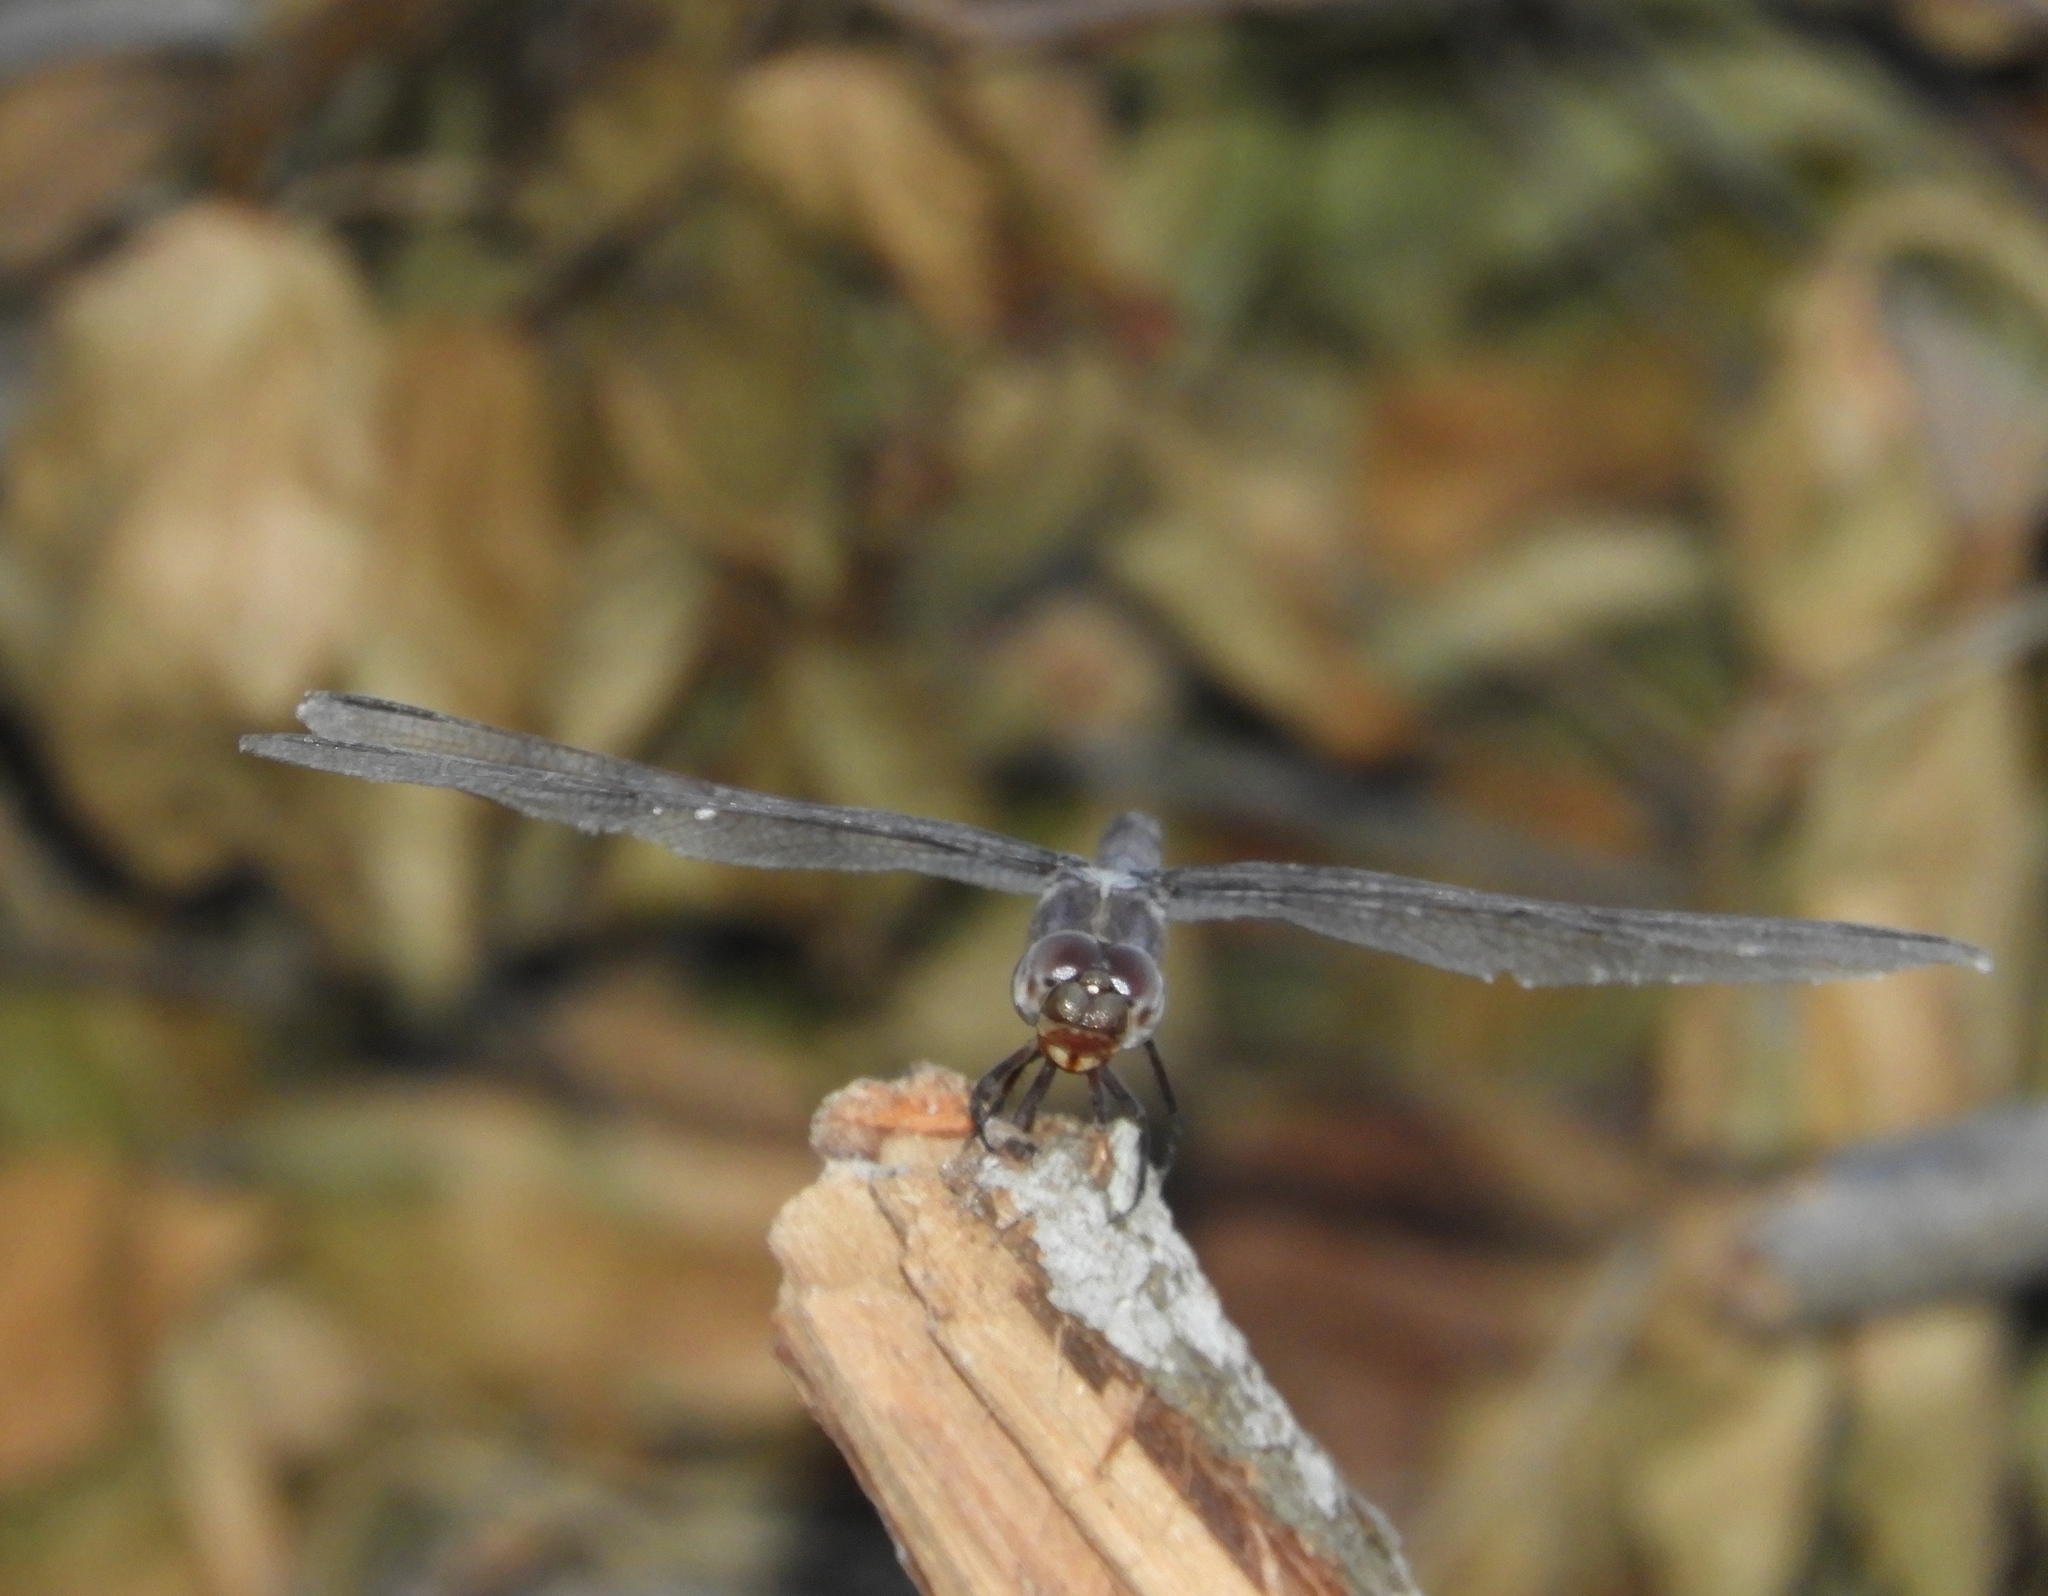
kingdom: Animalia
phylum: Arthropoda
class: Insecta
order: Odonata
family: Libellulidae
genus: Erythrodiplax
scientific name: Erythrodiplax funerea
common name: Black-winged dragonlet
